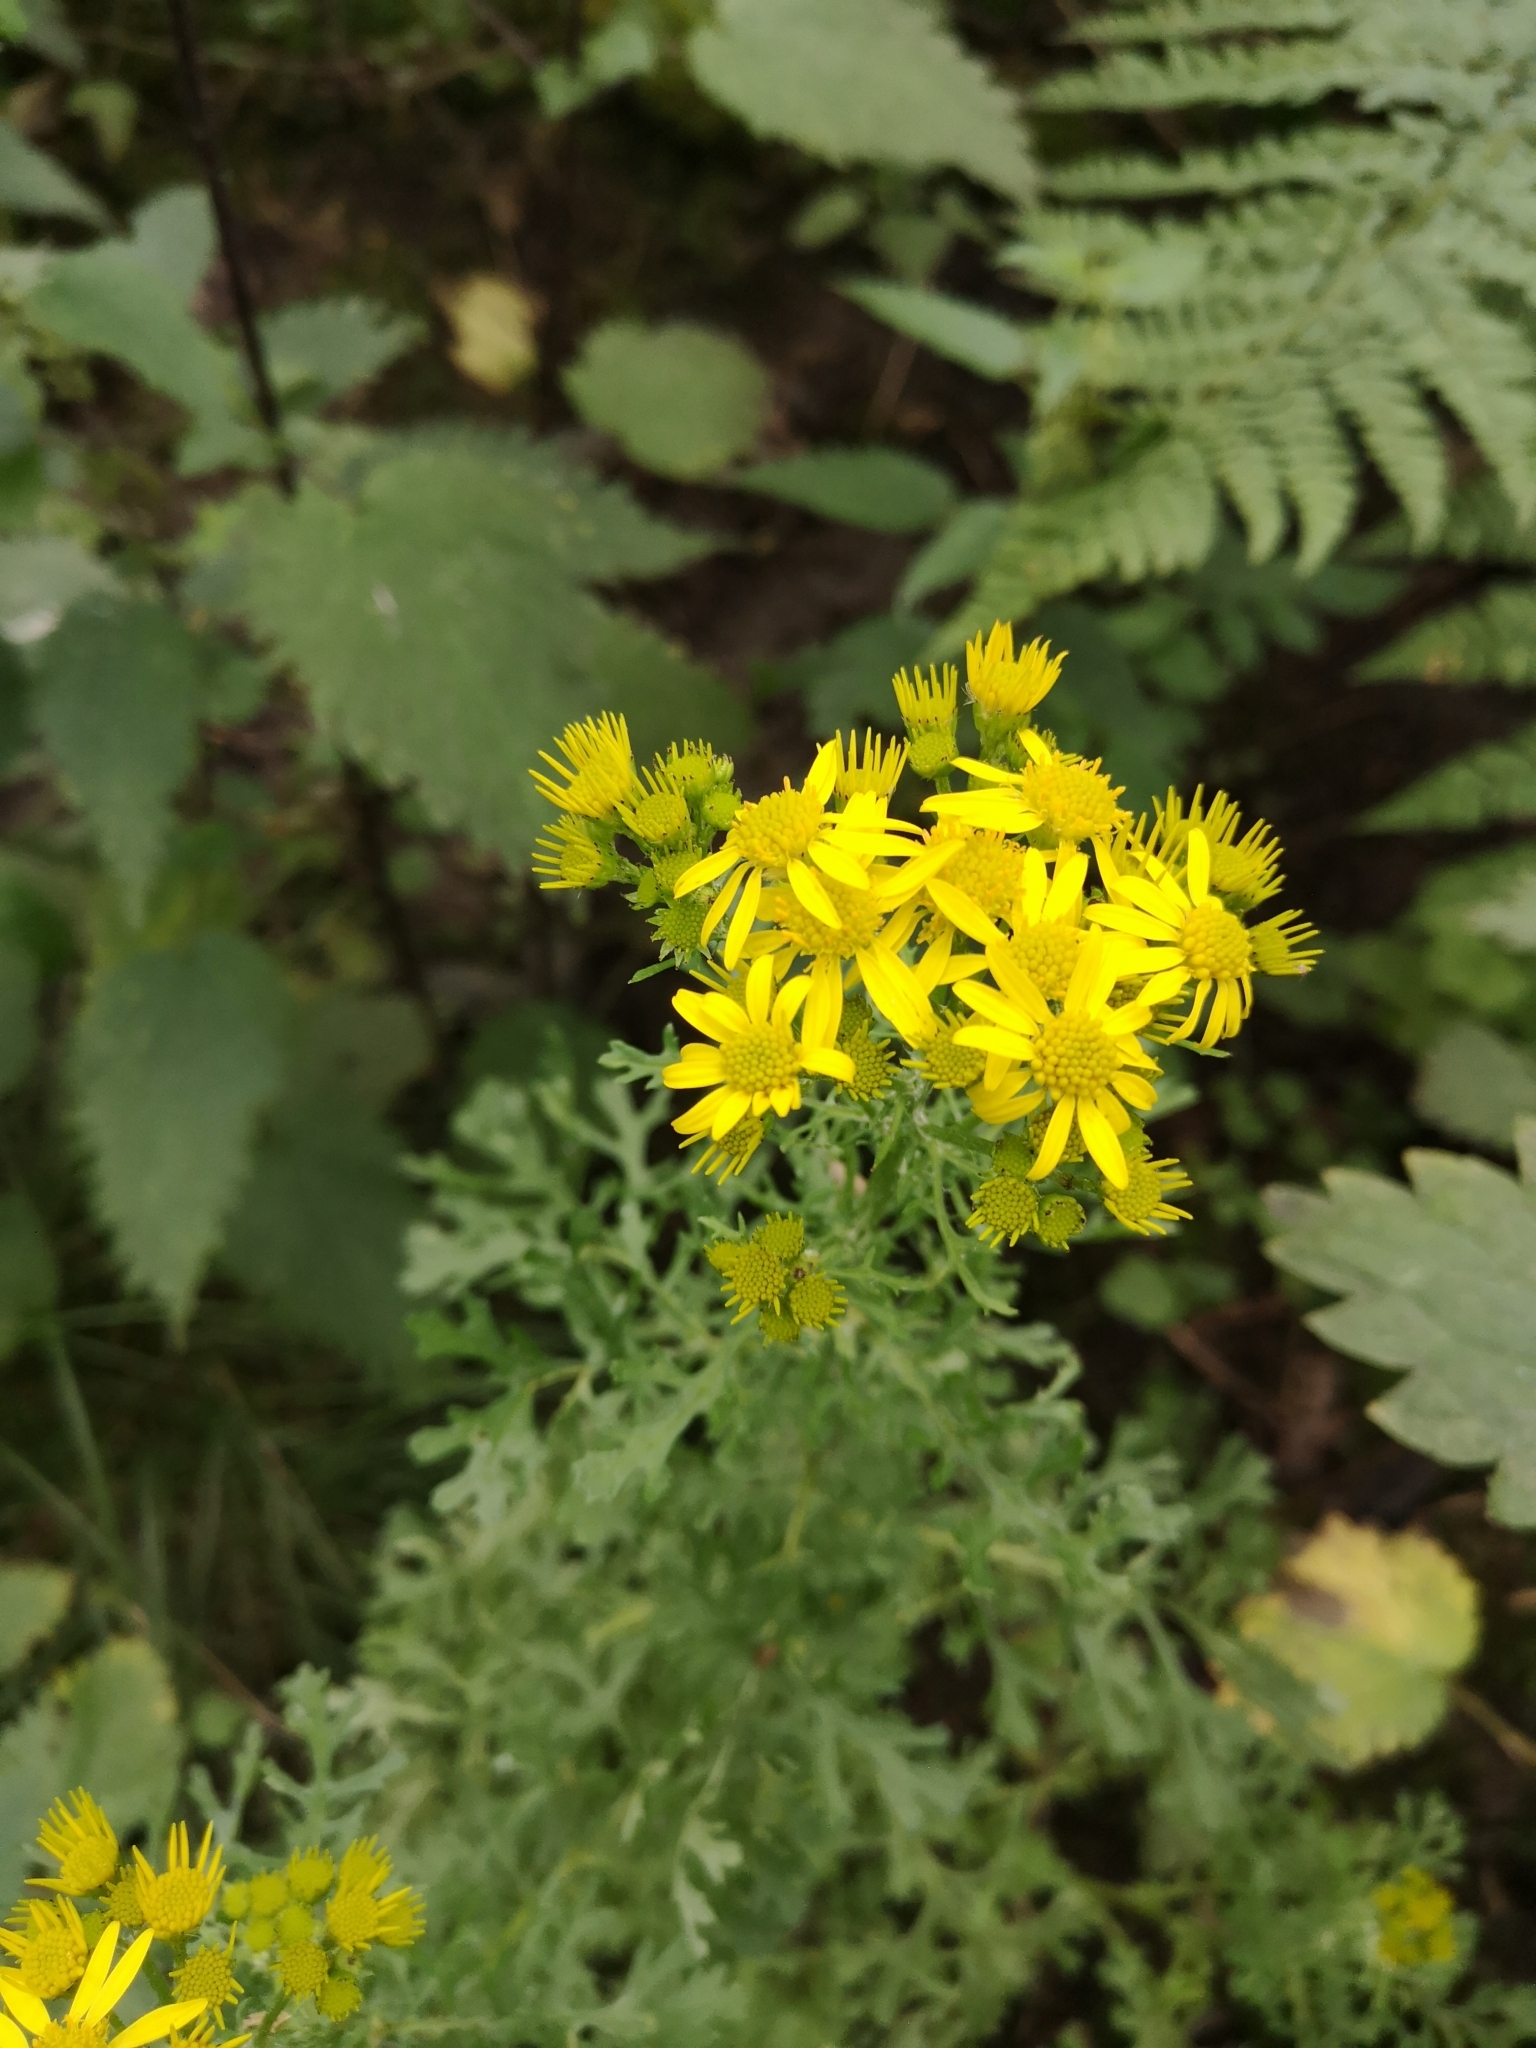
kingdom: Plantae
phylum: Tracheophyta
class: Magnoliopsida
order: Asterales
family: Asteraceae
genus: Jacobaea
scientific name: Jacobaea vulgaris
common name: Stinking willie
